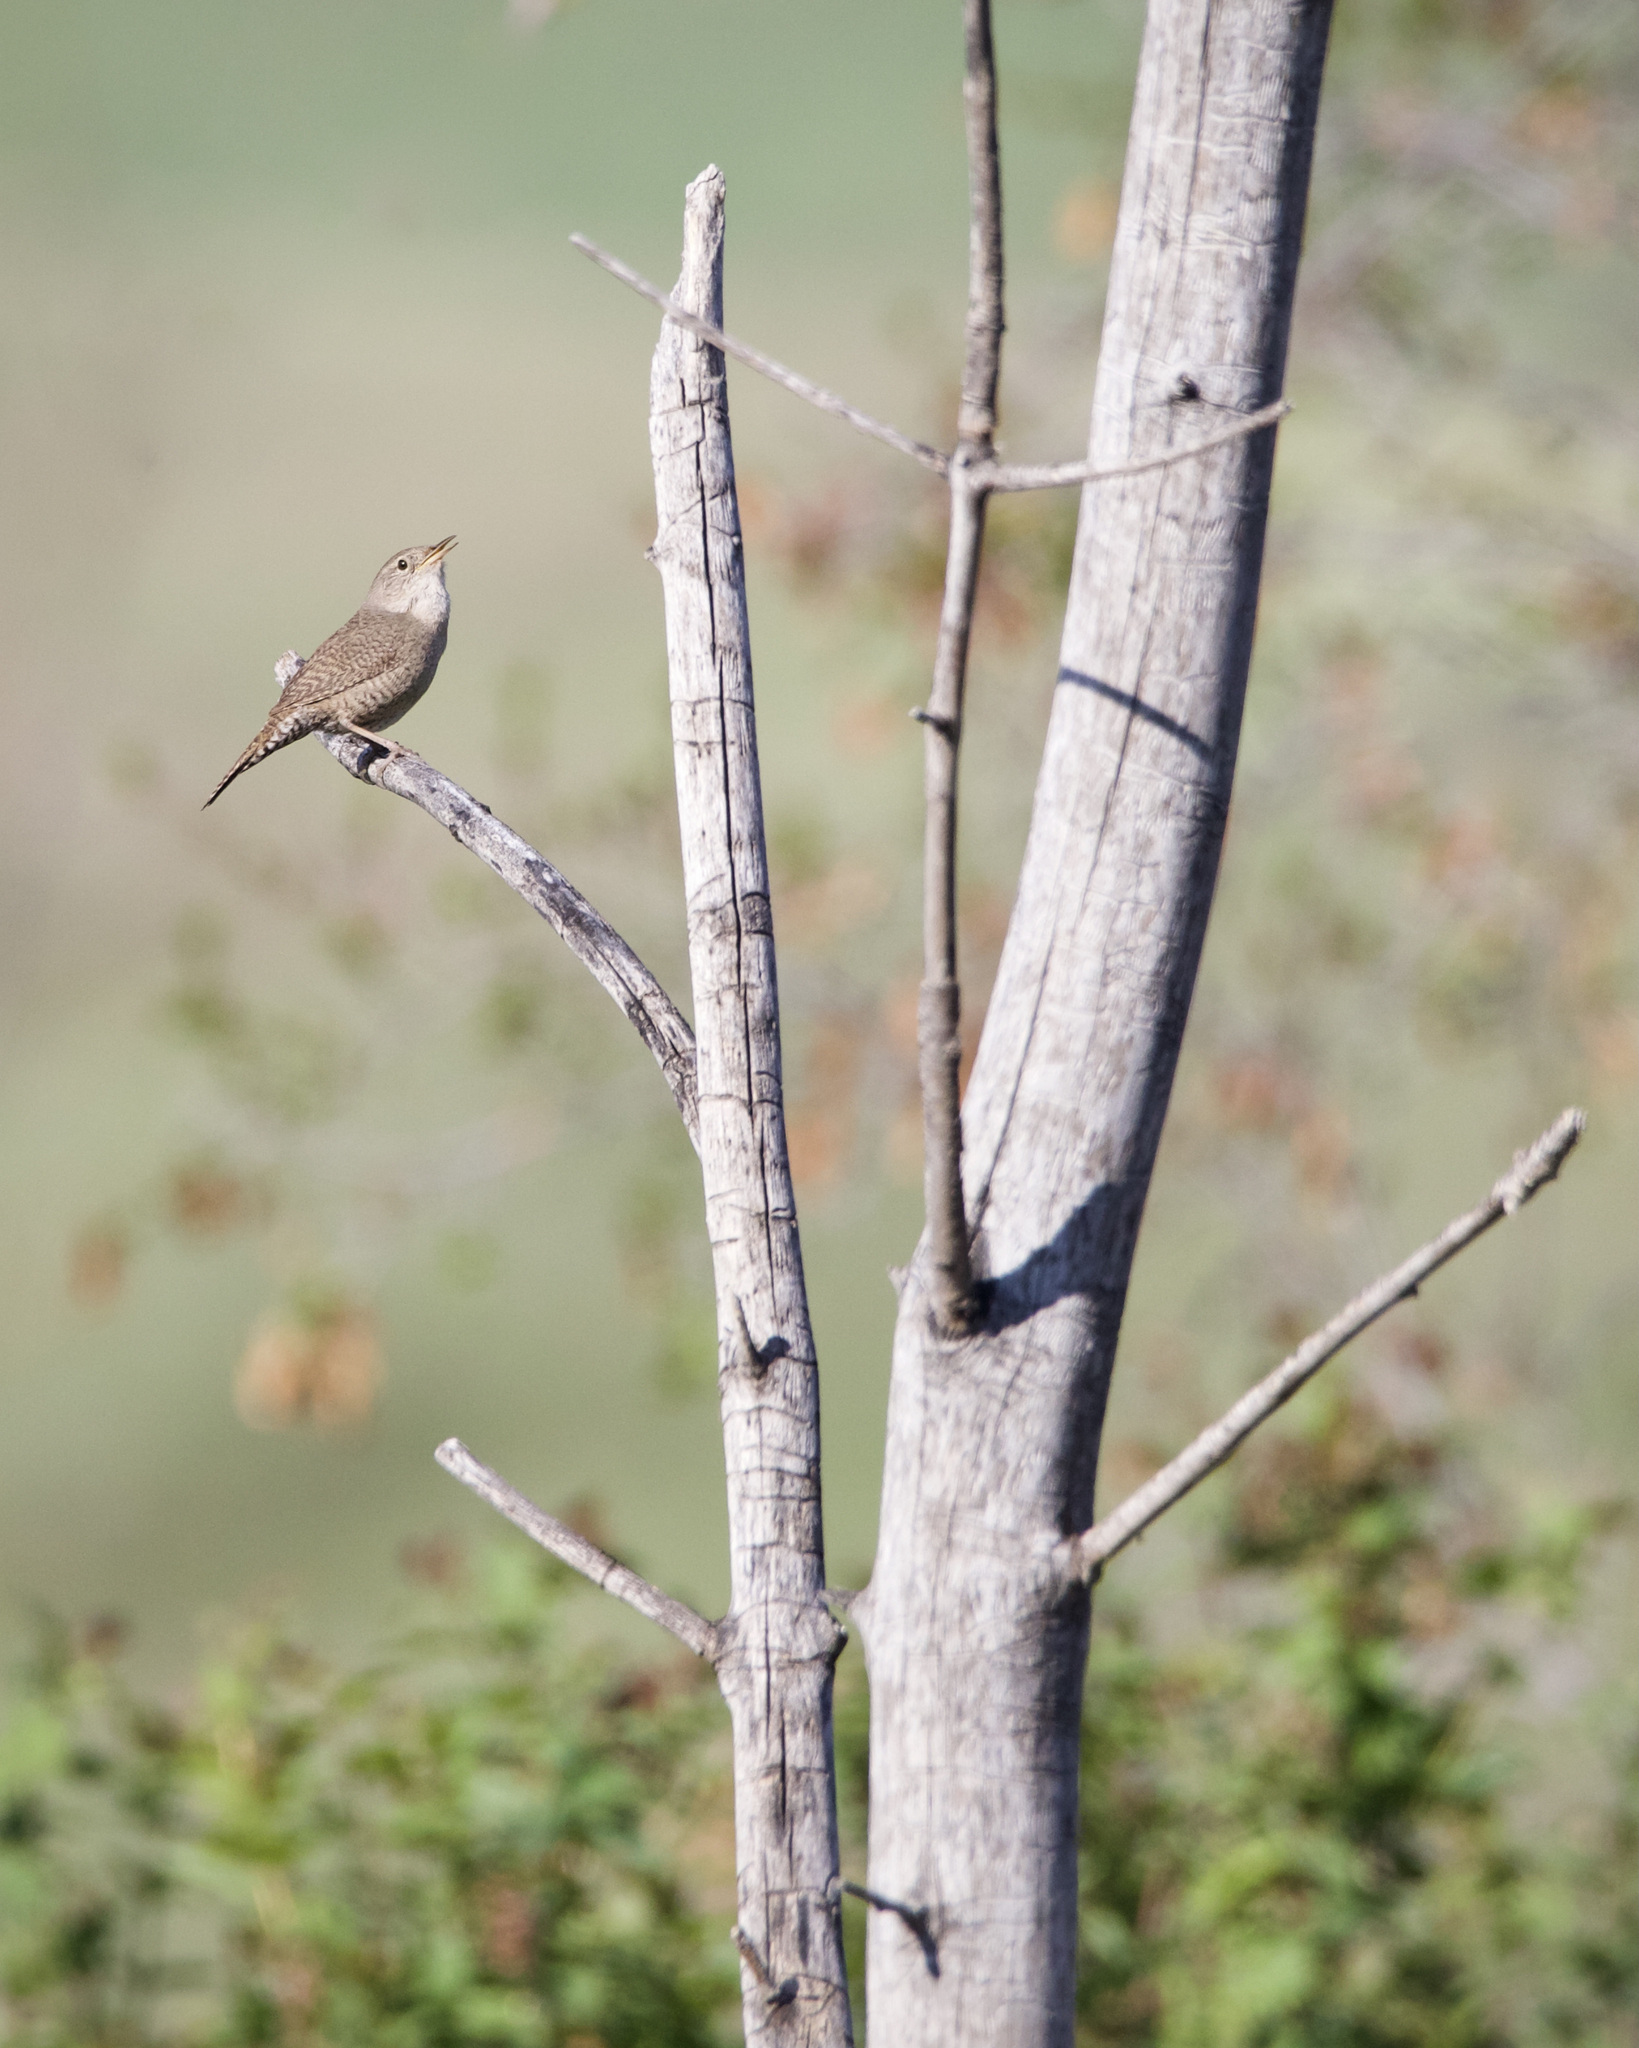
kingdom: Animalia
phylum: Chordata
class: Aves
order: Passeriformes
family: Troglodytidae
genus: Troglodytes
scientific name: Troglodytes aedon
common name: House wren
